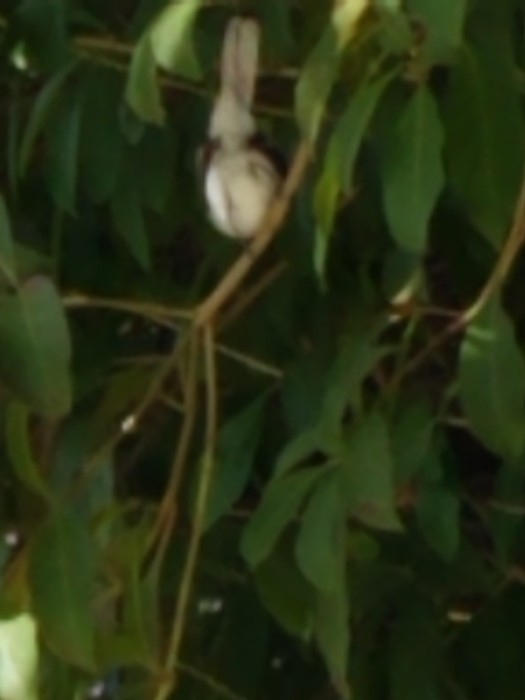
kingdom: Animalia
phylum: Chordata
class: Aves
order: Passeriformes
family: Polioptilidae
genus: Polioptila
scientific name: Polioptila caerulea
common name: Blue-gray gnatcatcher
